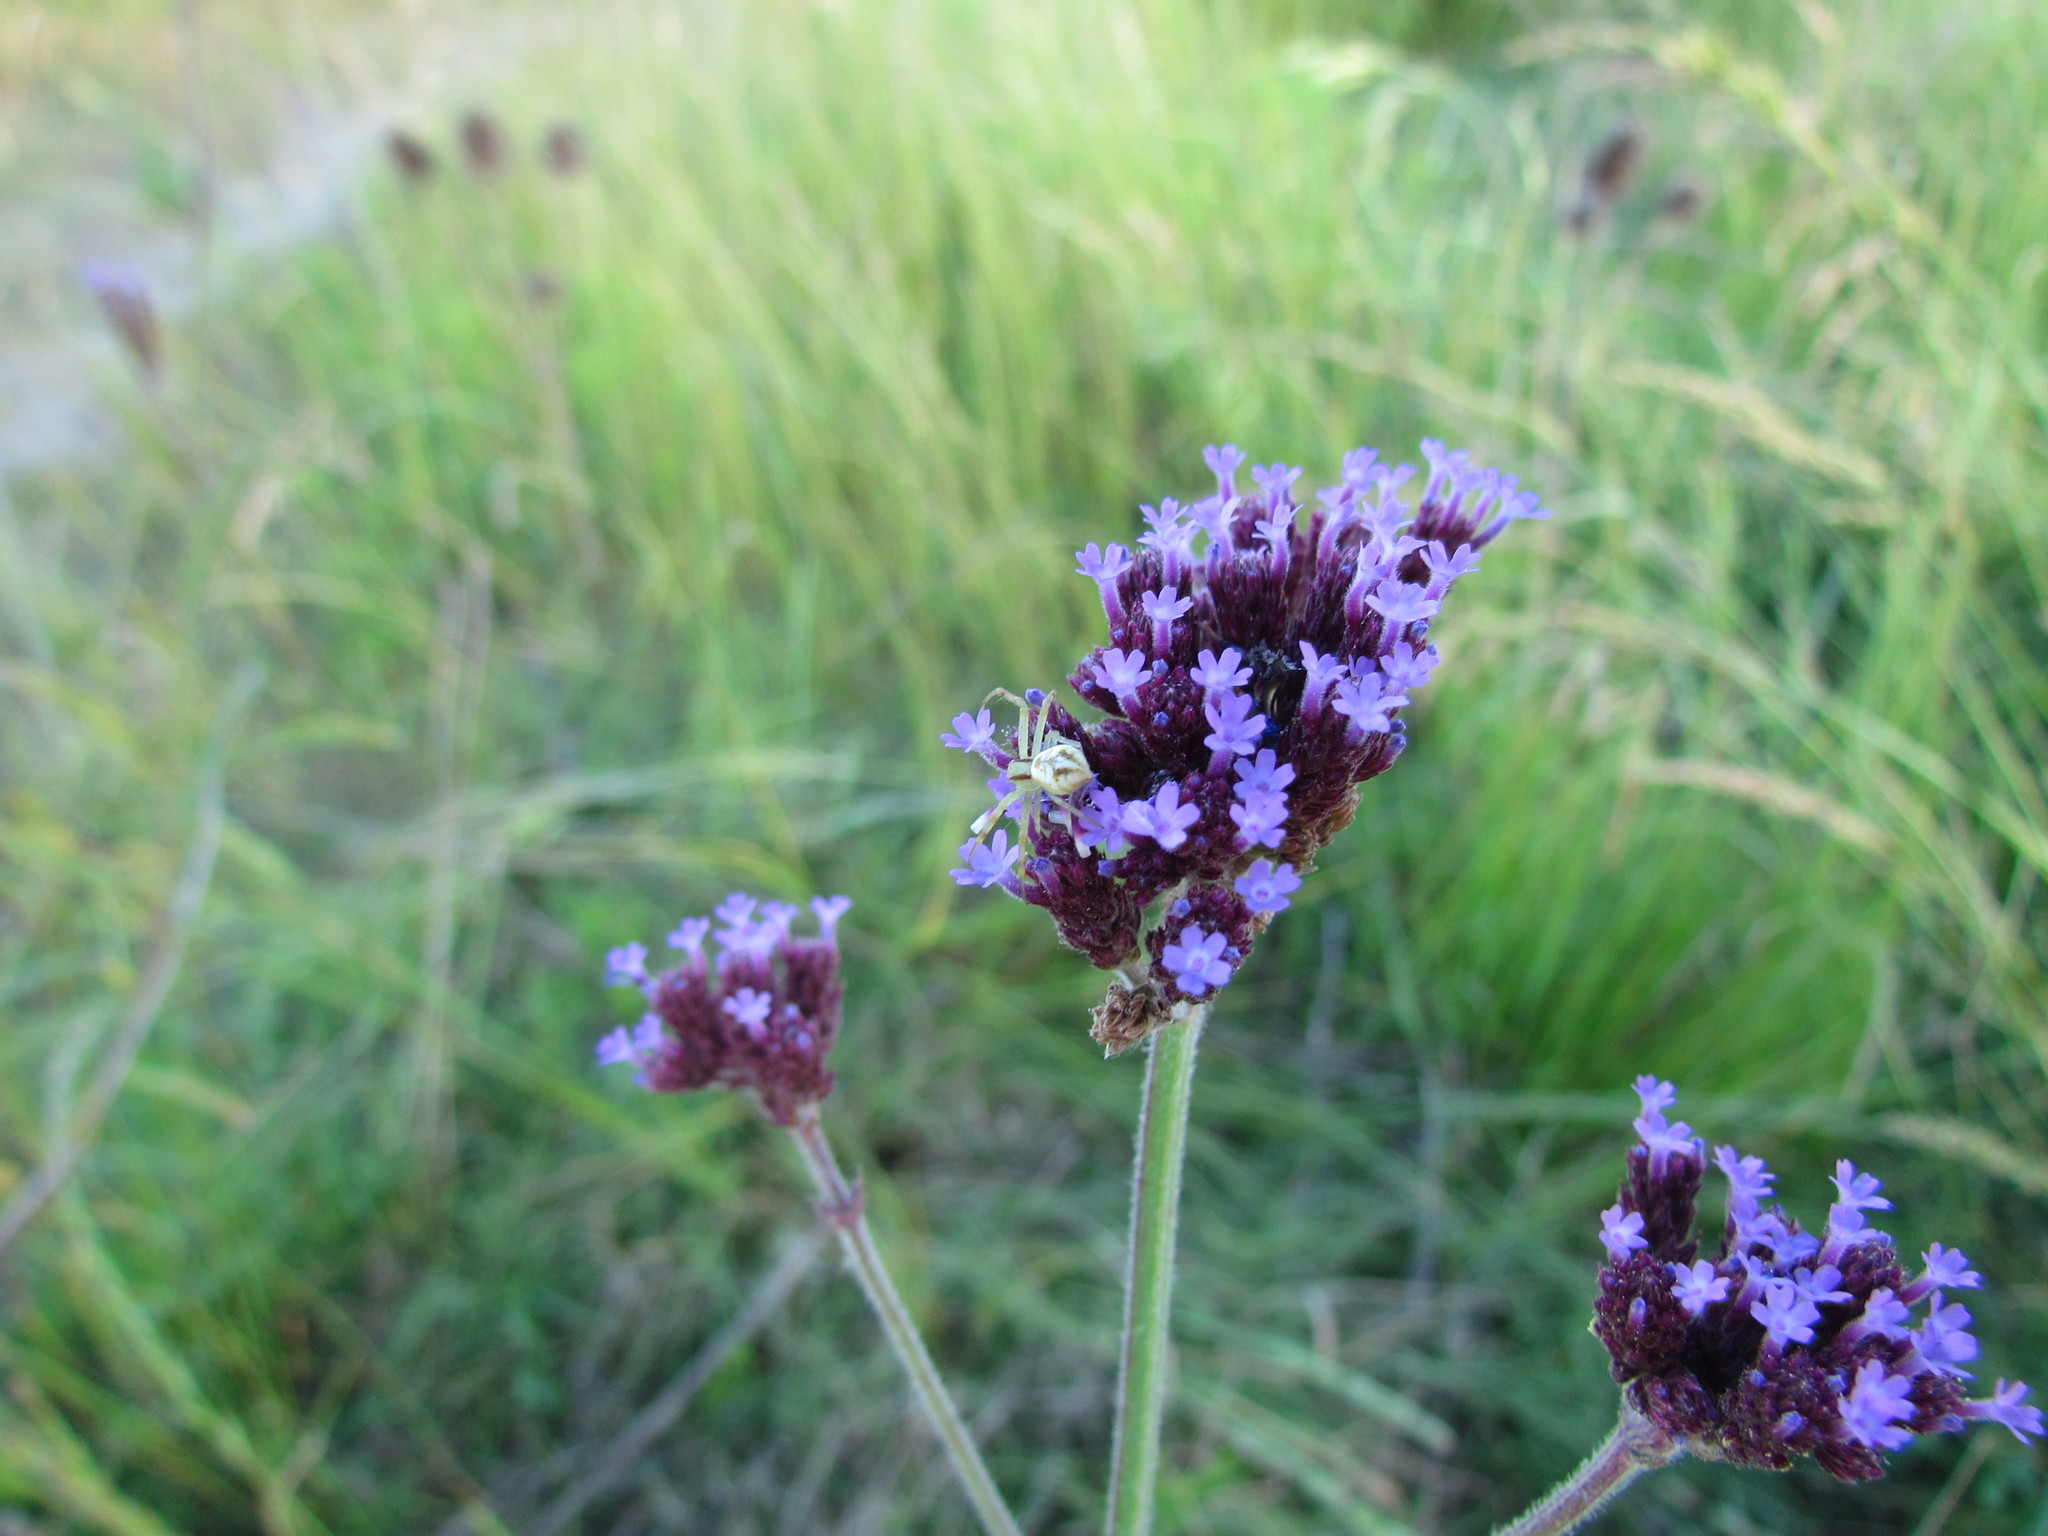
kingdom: Animalia
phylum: Arthropoda
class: Arachnida
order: Araneae
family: Thomisidae
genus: Misumenops
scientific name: Misumenops
